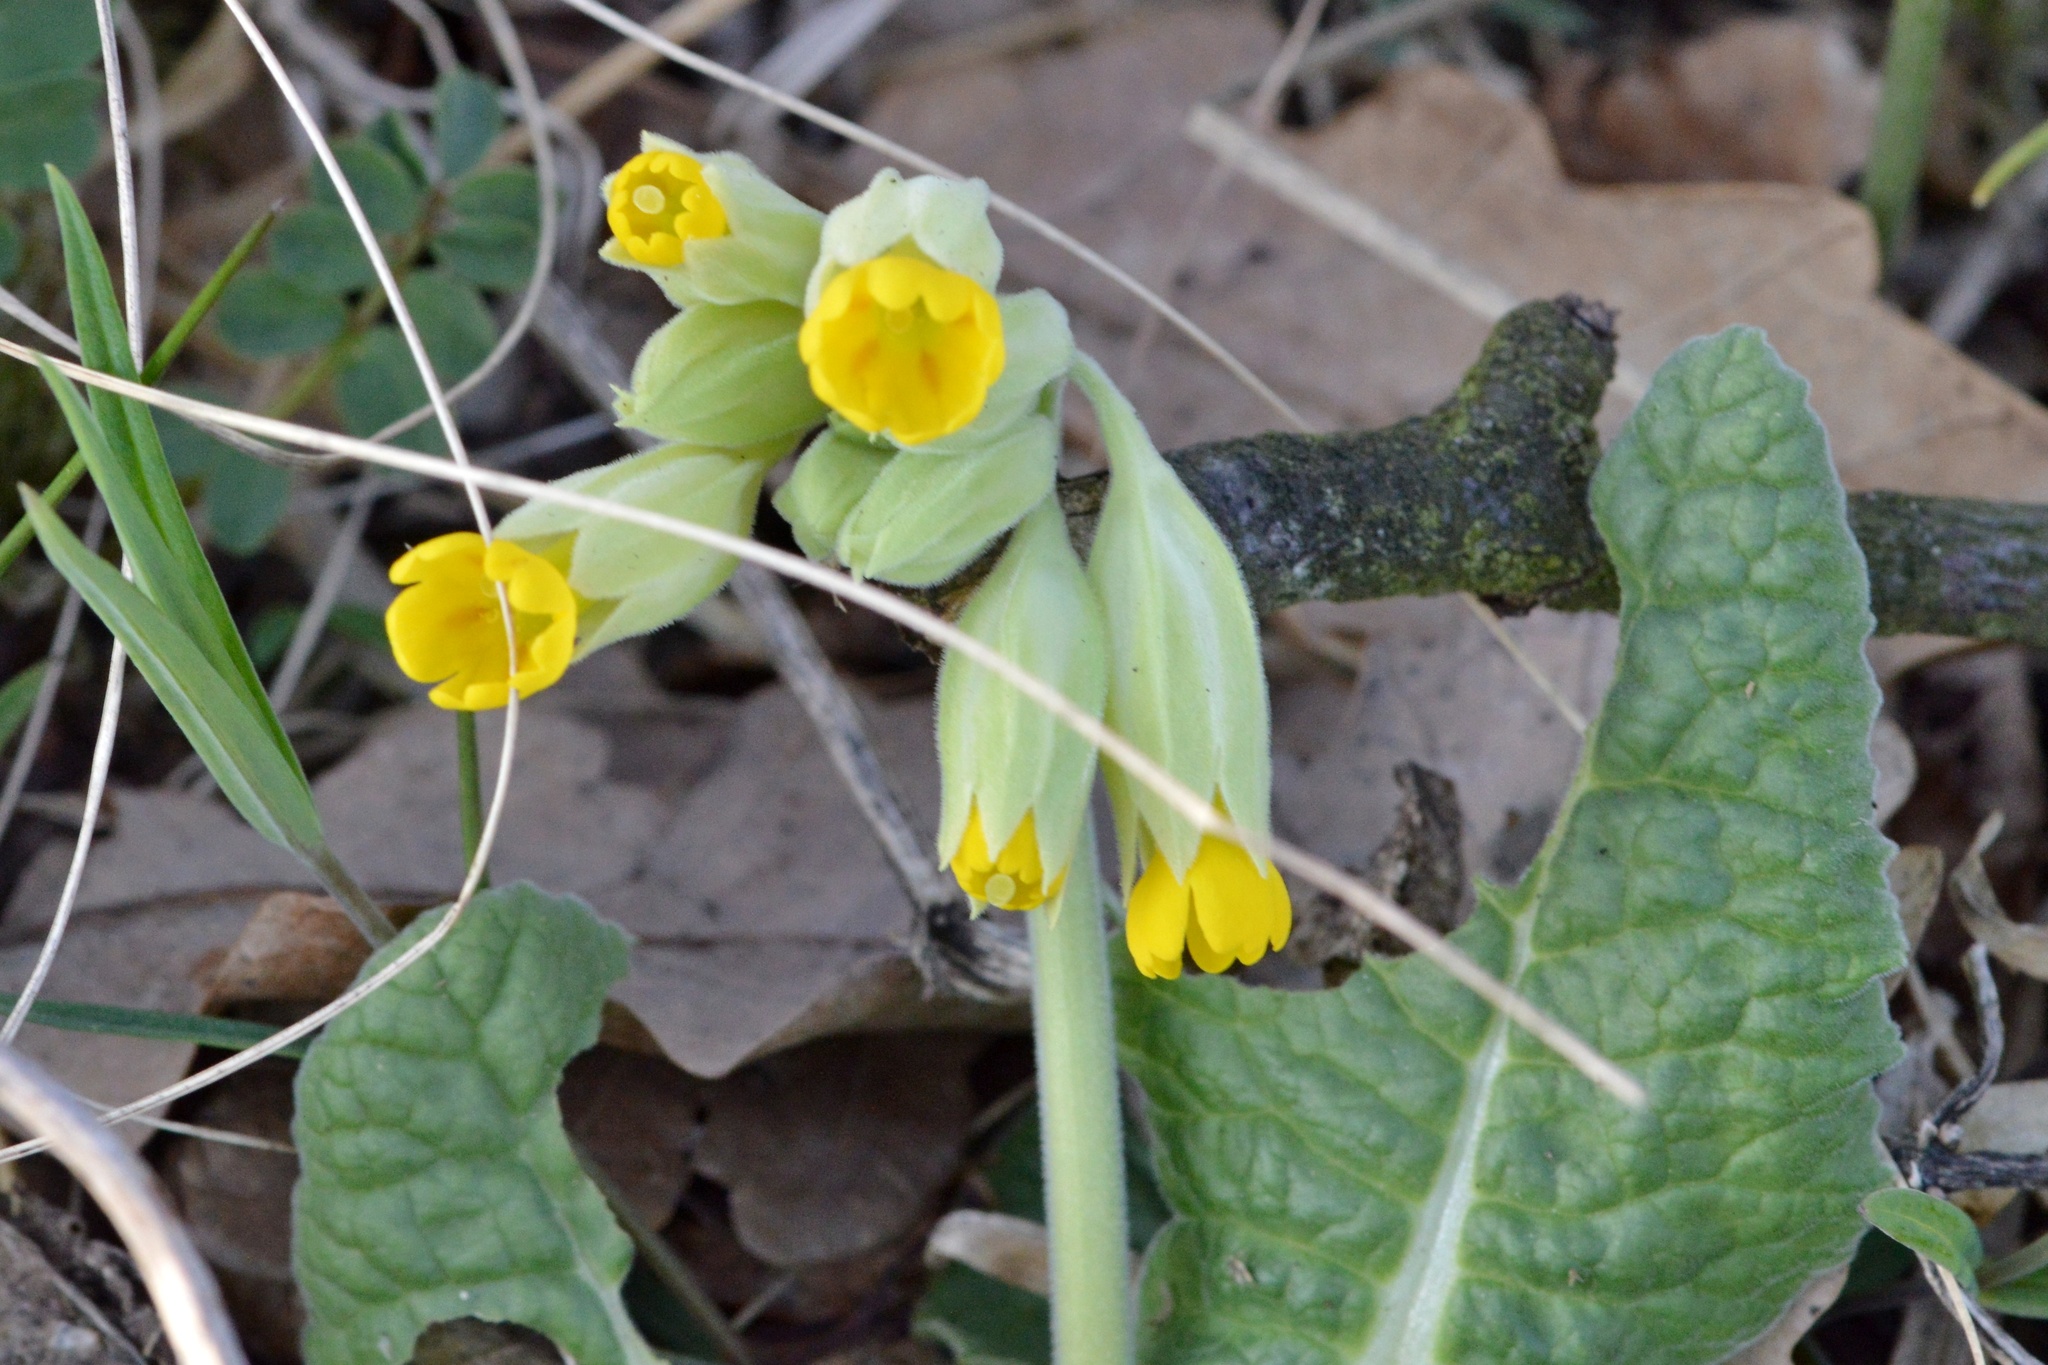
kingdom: Plantae
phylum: Tracheophyta
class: Magnoliopsida
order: Ericales
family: Primulaceae
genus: Primula
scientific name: Primula veris
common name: Cowslip
